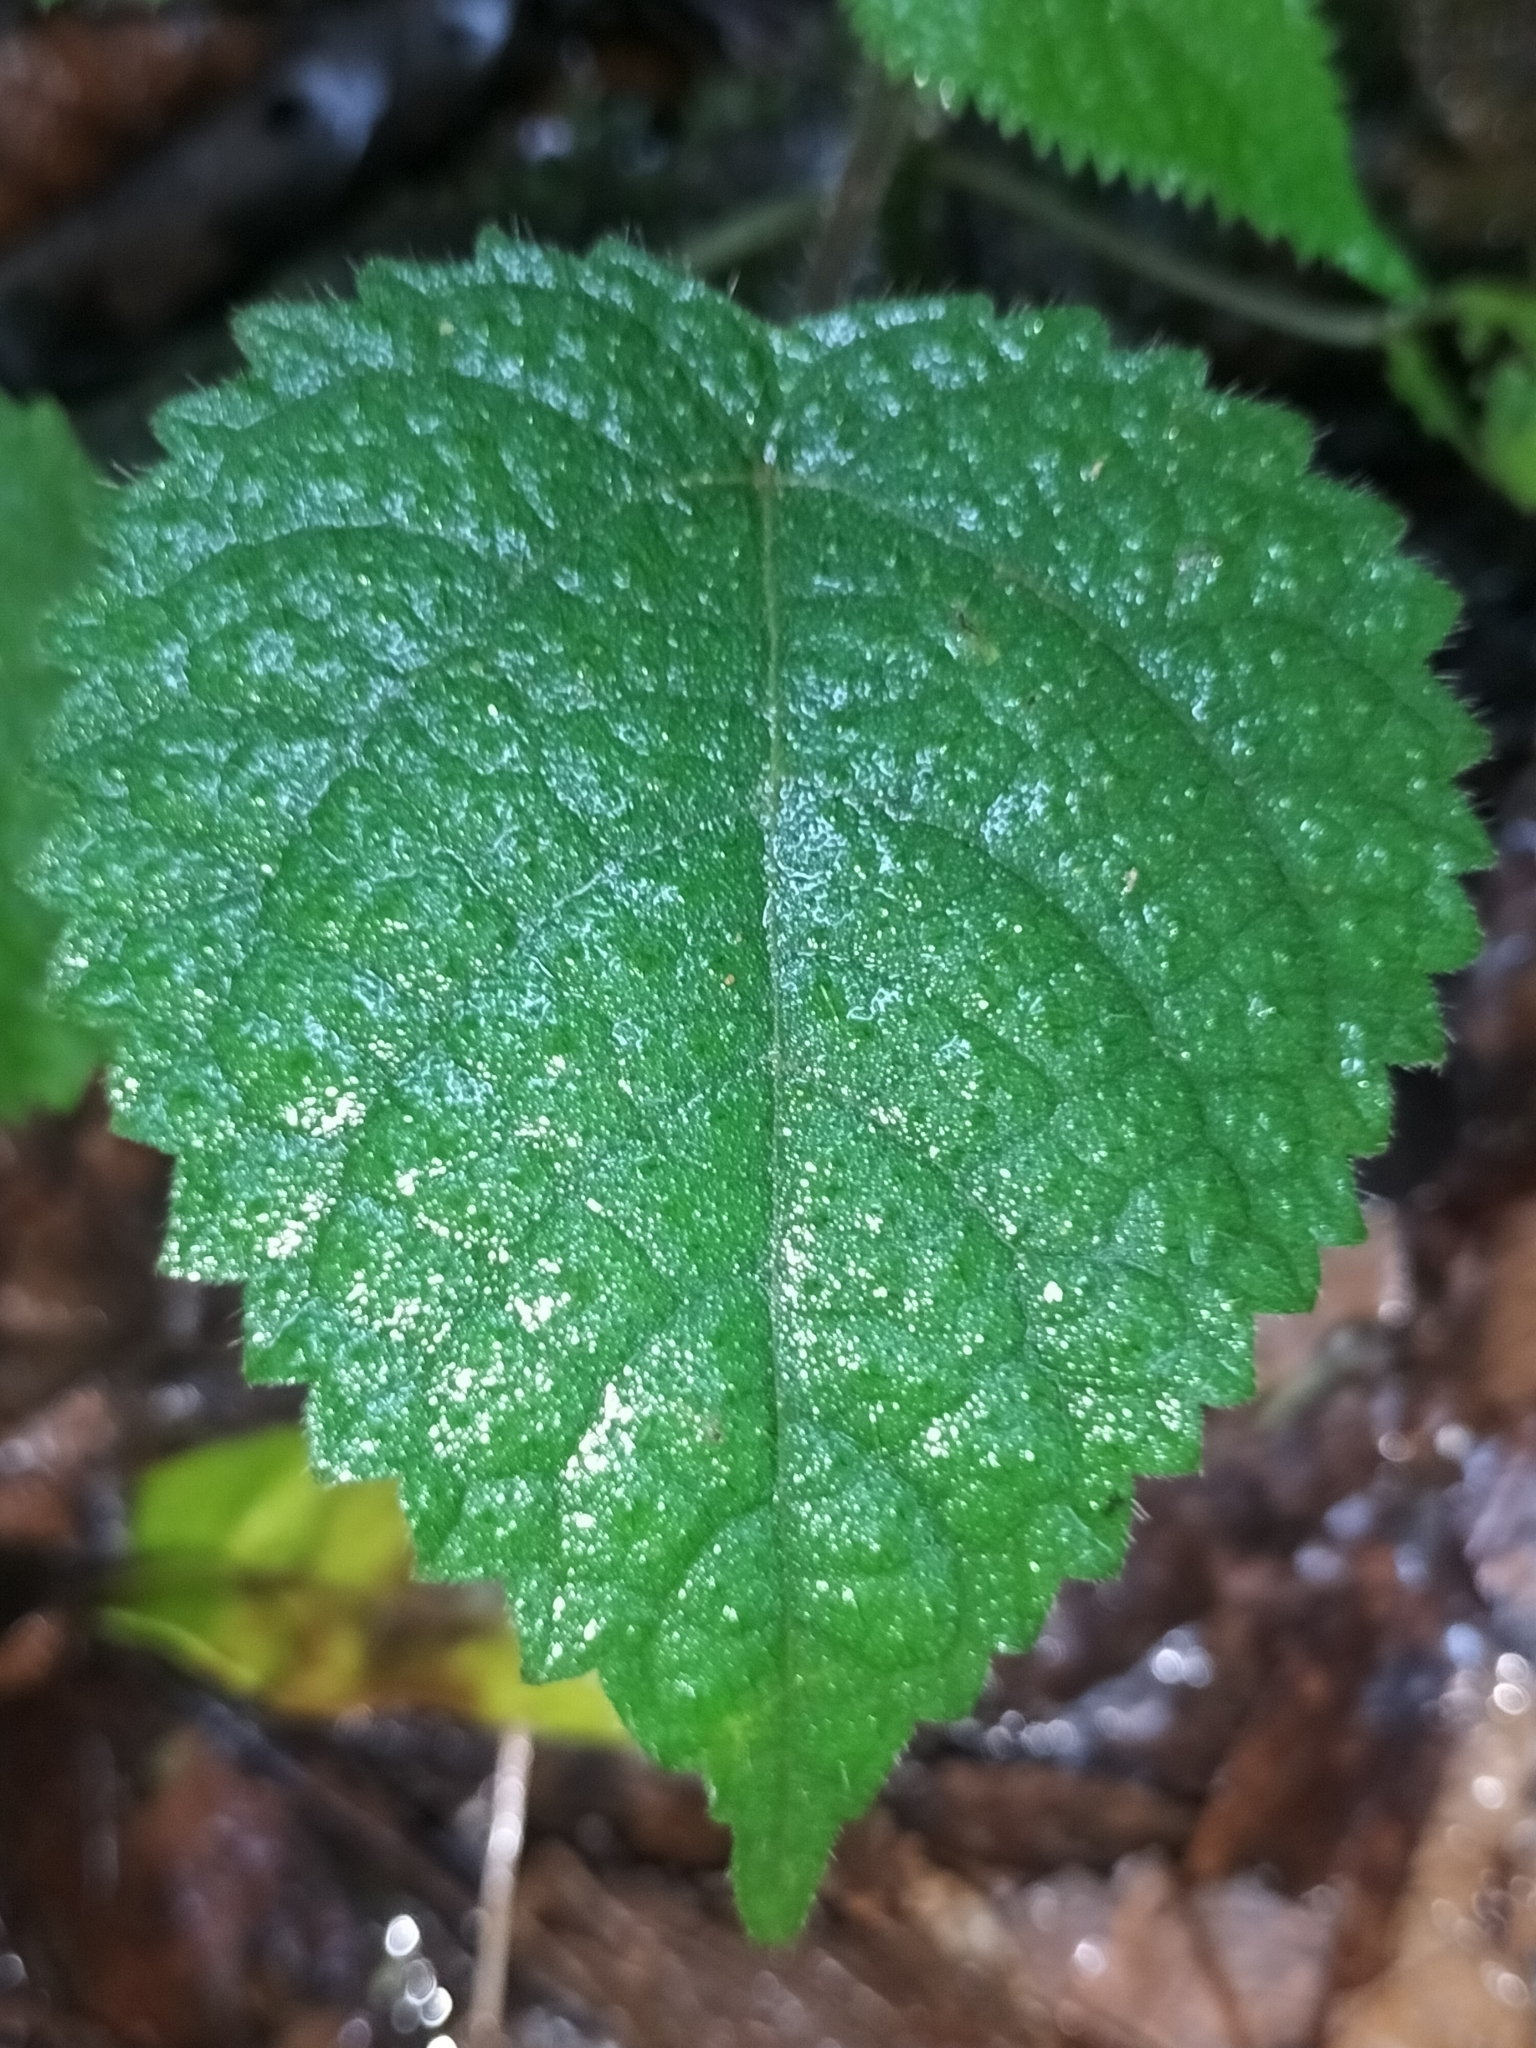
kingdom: Plantae
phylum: Tracheophyta
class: Magnoliopsida
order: Rosales
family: Urticaceae
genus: Dendrocnide
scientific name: Dendrocnide moroides
